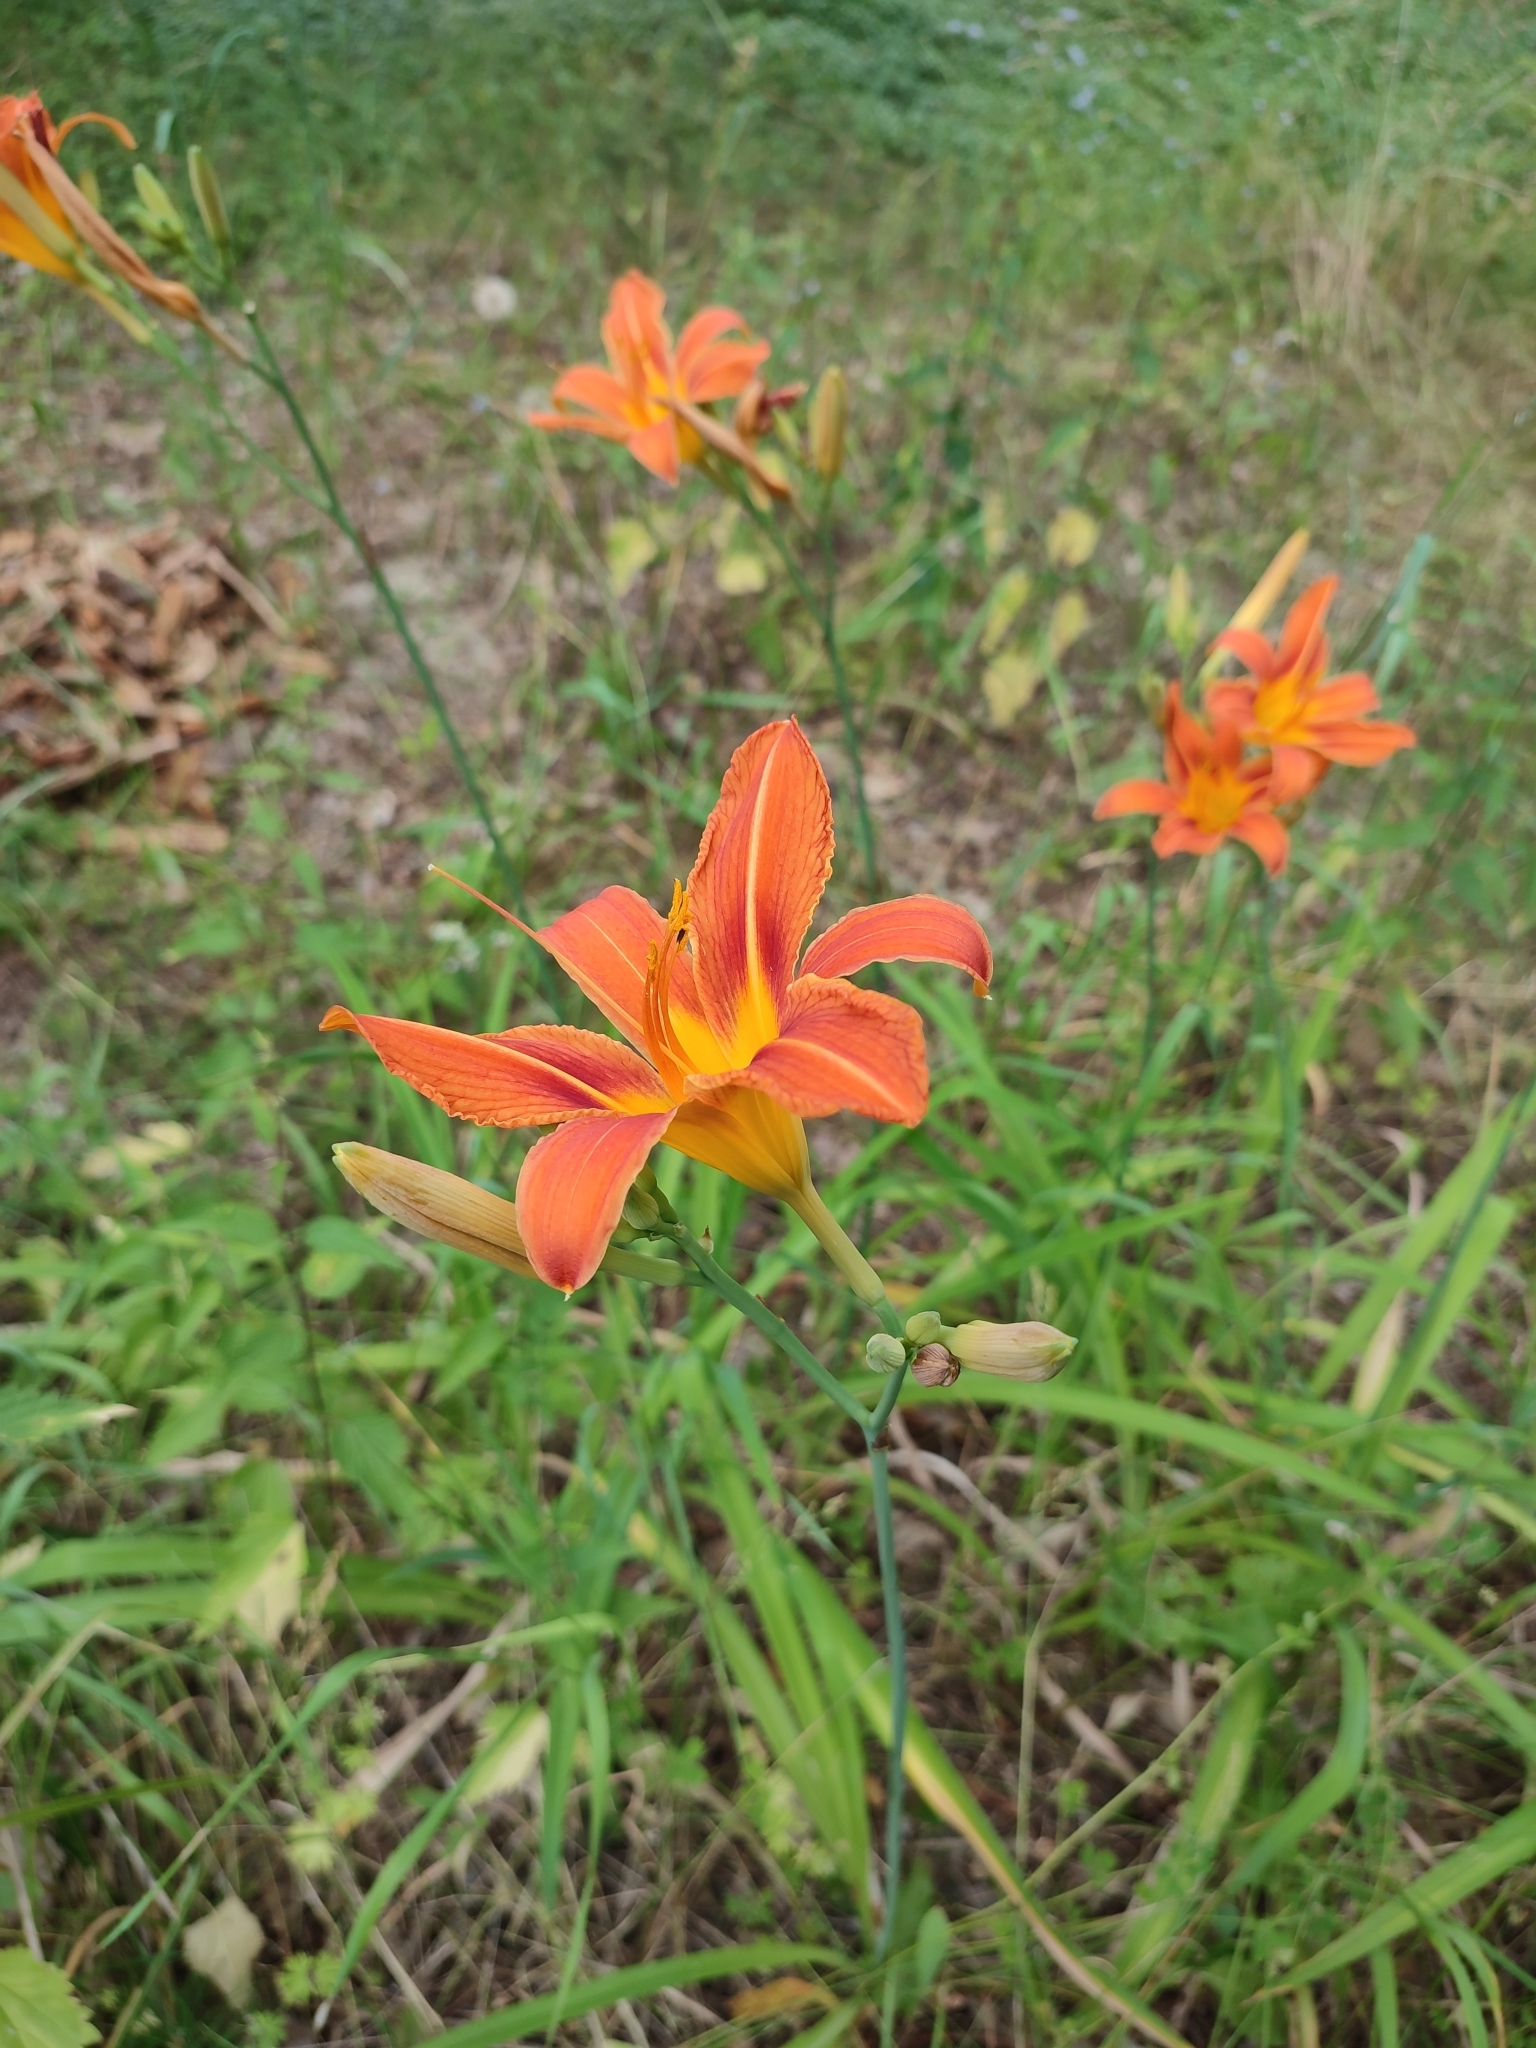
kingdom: Plantae
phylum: Tracheophyta
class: Liliopsida
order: Asparagales
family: Asphodelaceae
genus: Hemerocallis
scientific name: Hemerocallis fulva
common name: Orange day-lily
